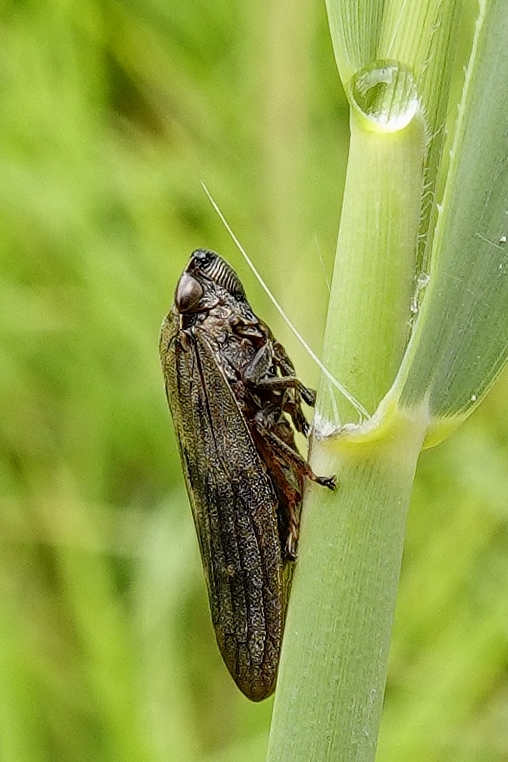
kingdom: Animalia
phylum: Arthropoda
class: Insecta
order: Hemiptera
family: Aphrophoridae
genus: Aphrophora
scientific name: Aphrophora major
